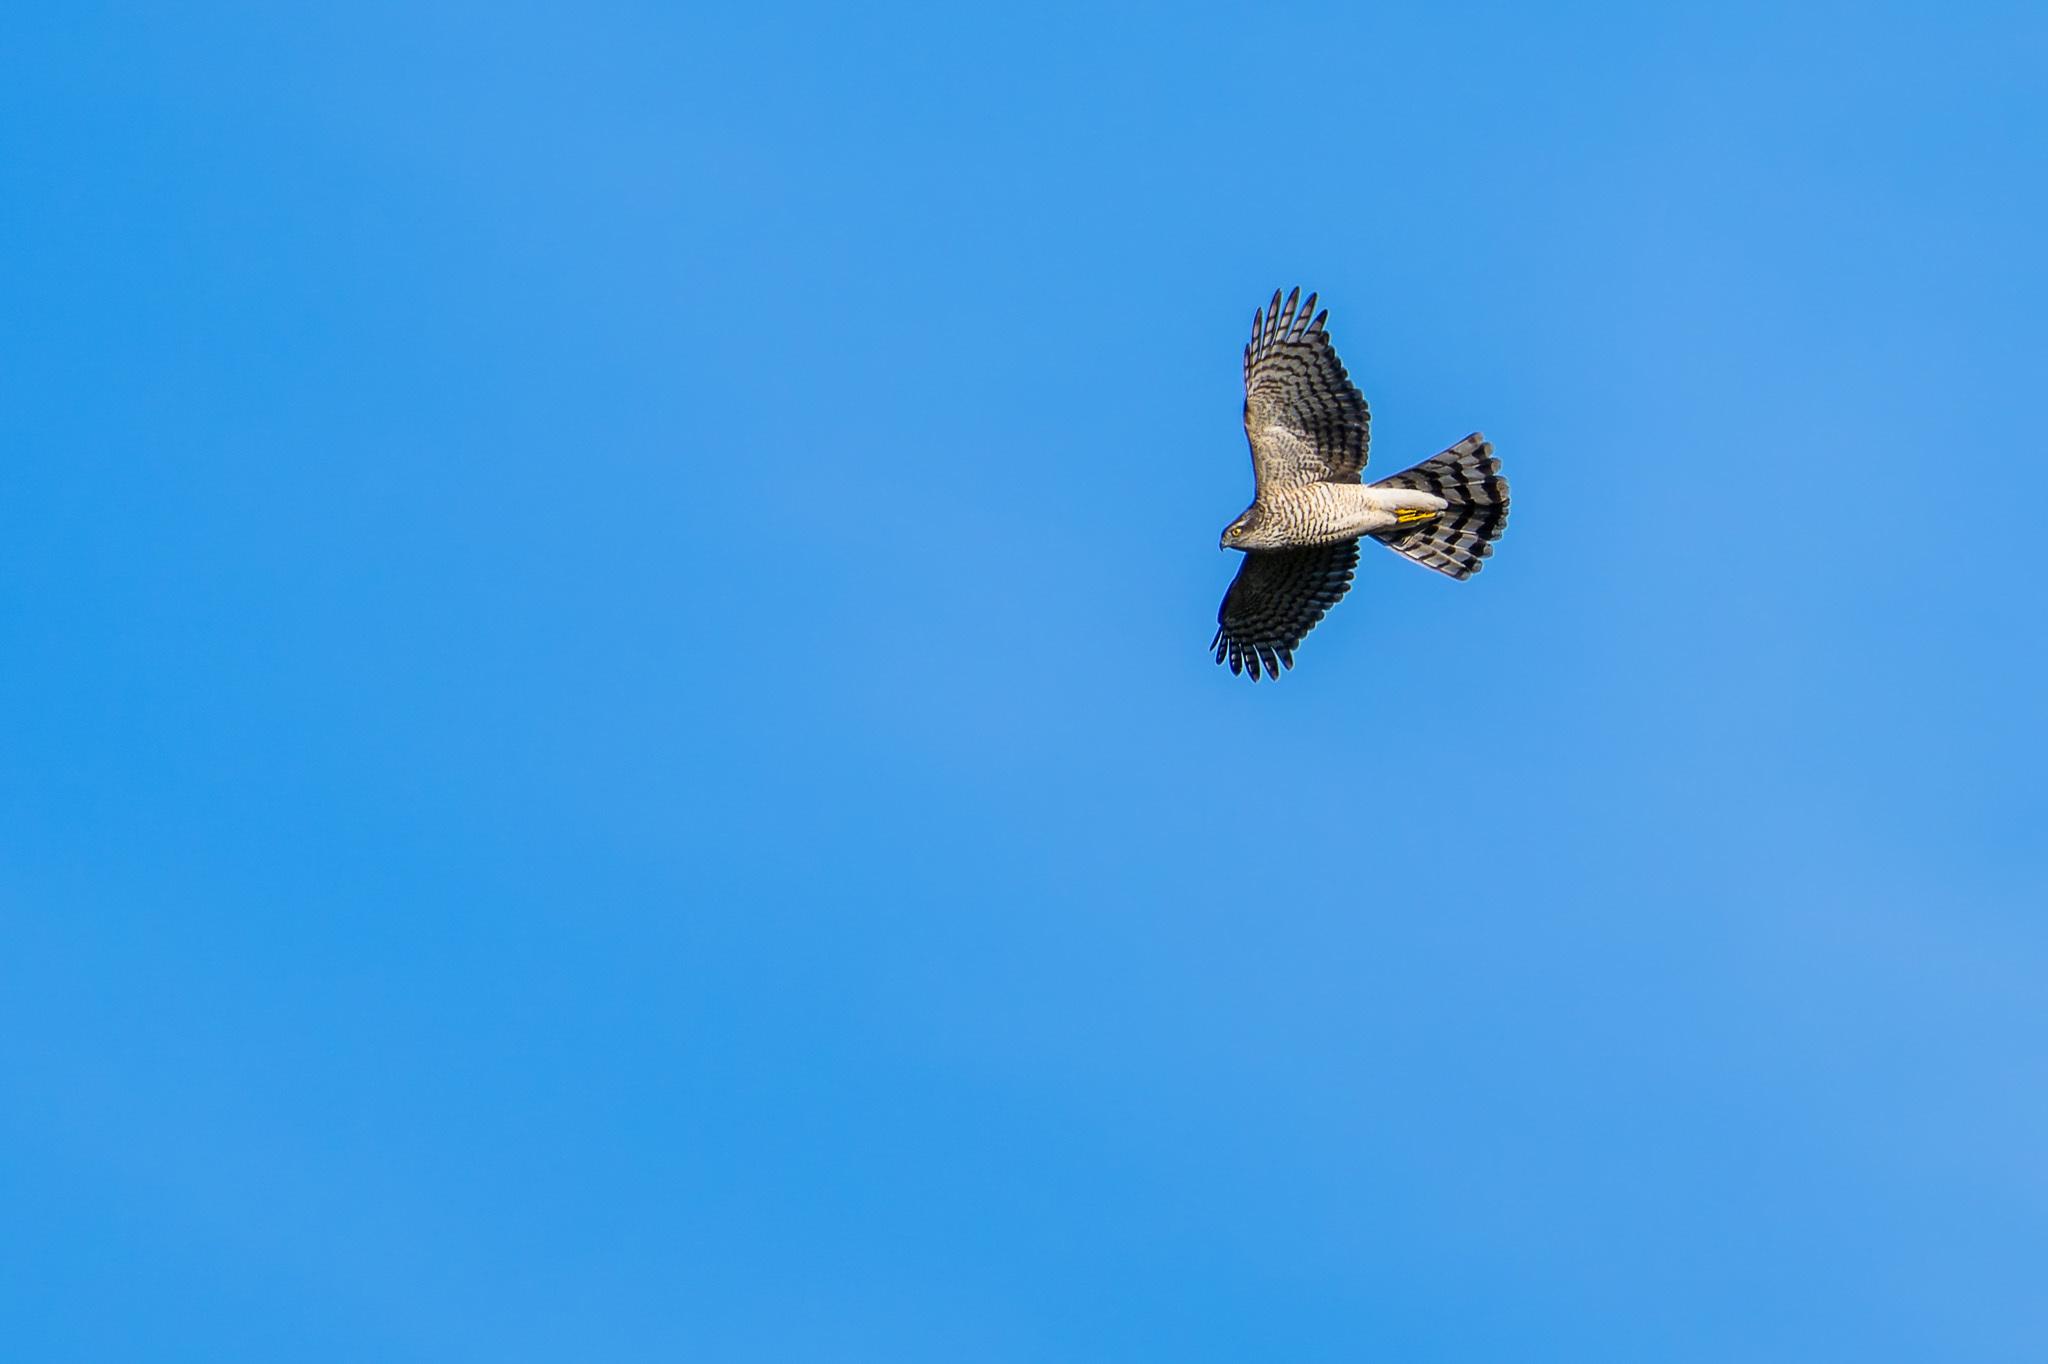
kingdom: Animalia
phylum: Chordata
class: Aves
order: Accipitriformes
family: Accipitridae
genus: Accipiter
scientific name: Accipiter nisus
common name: Eurasian sparrowhawk
